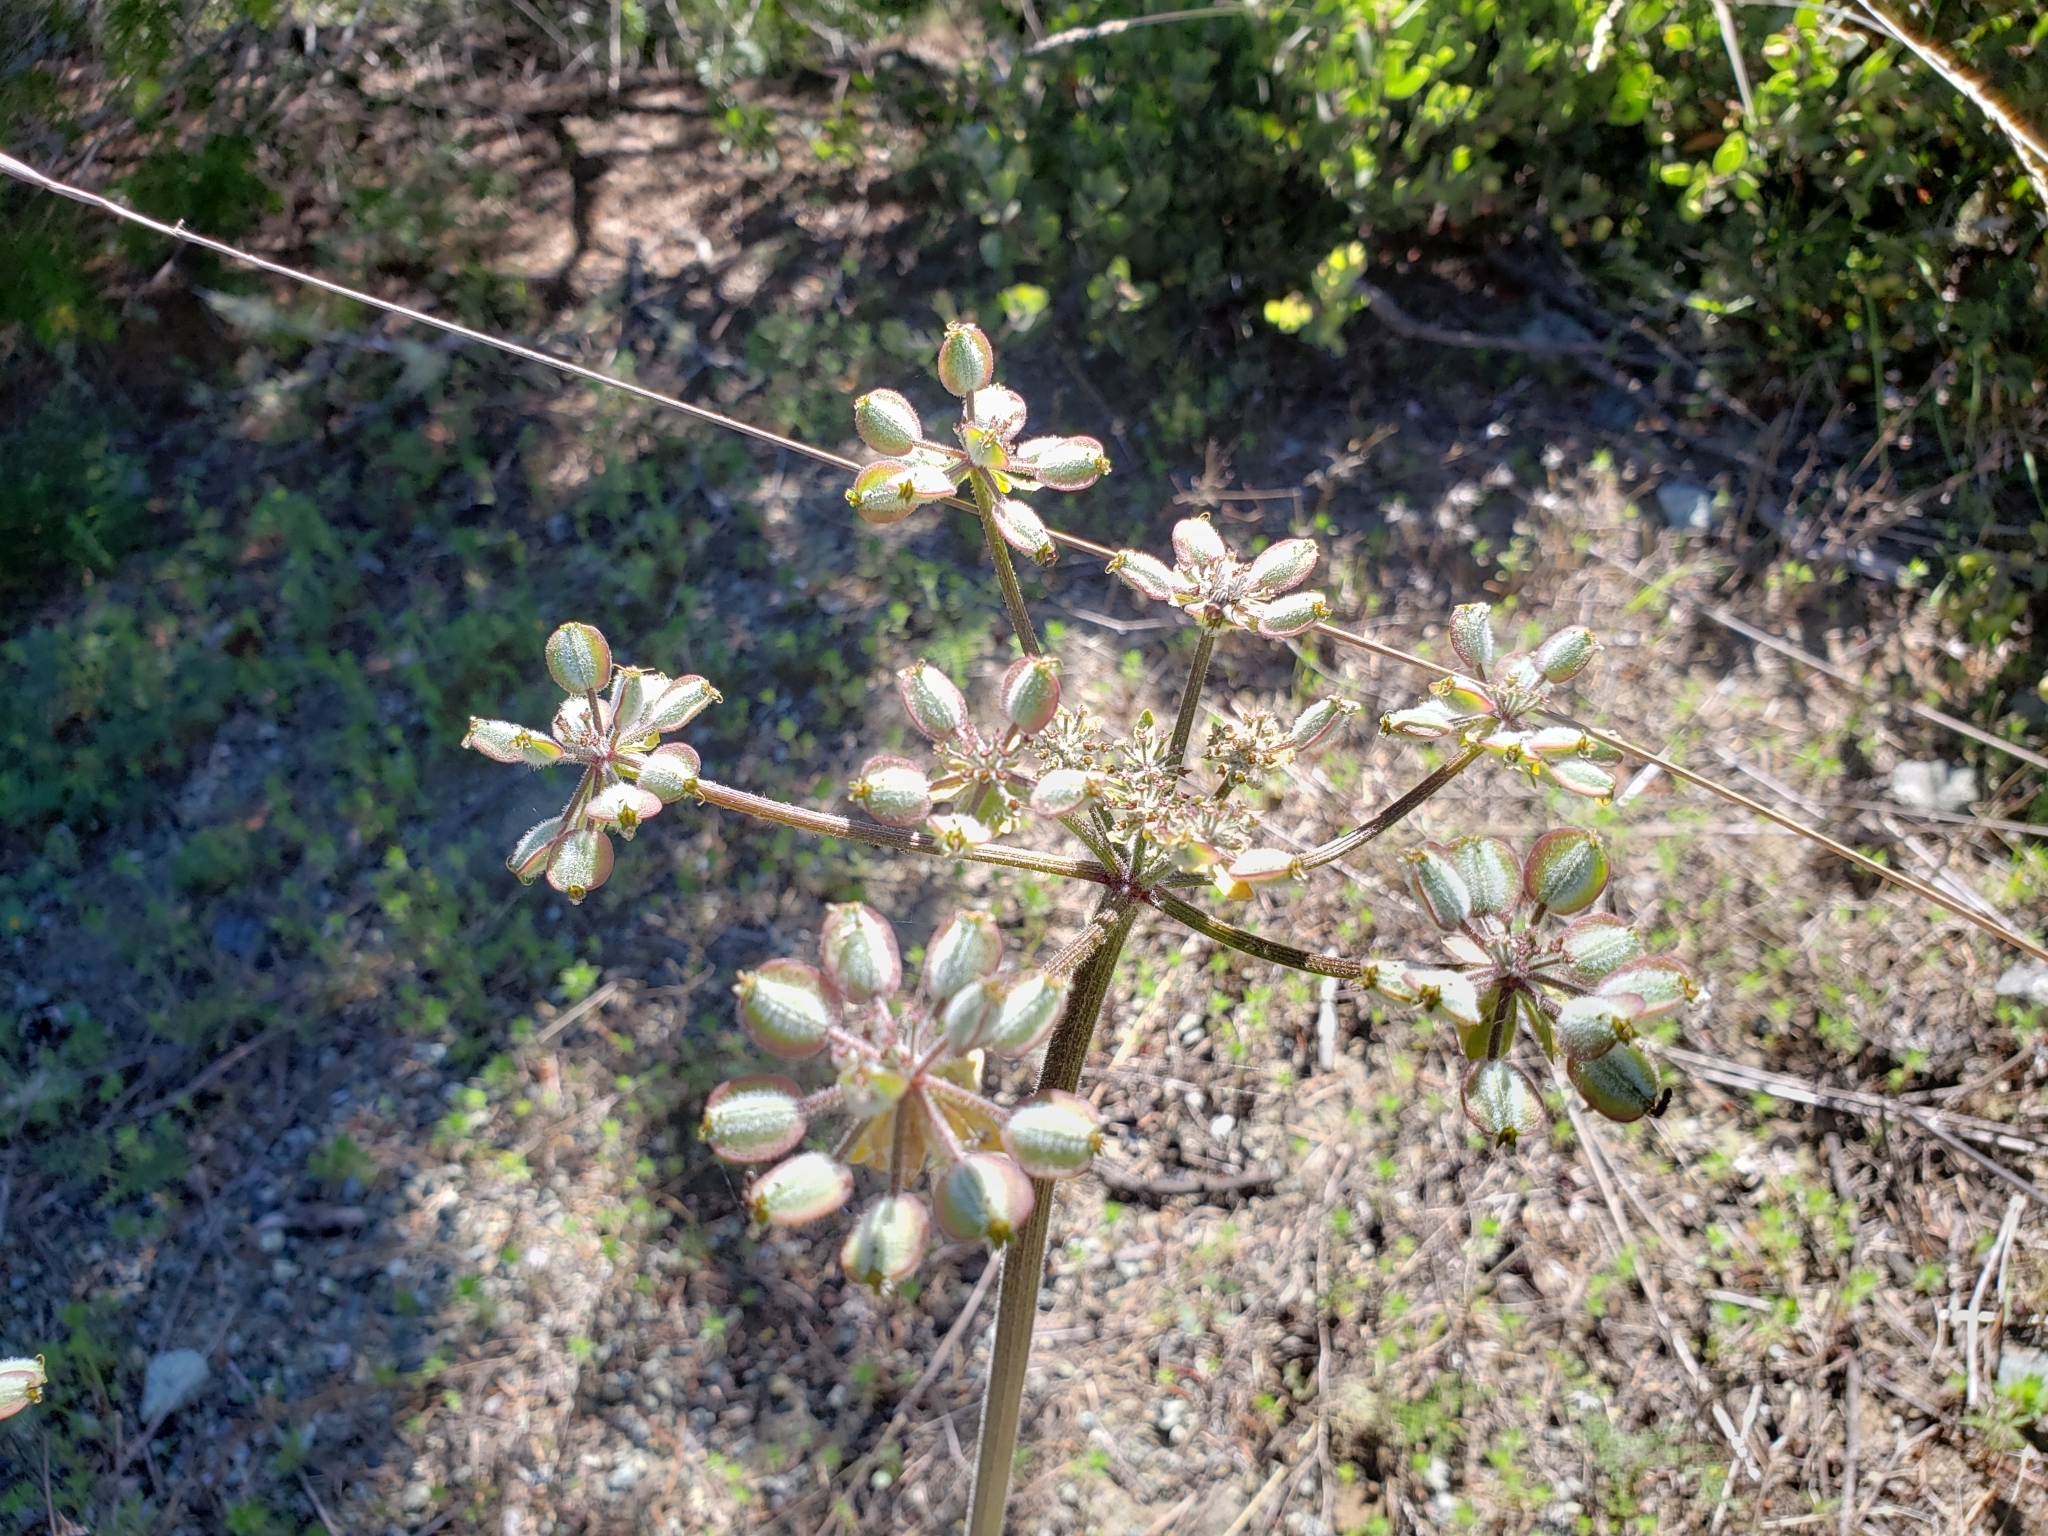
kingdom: Plantae
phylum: Tracheophyta
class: Magnoliopsida
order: Apiales
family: Apiaceae
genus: Lomatium
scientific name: Lomatium dasycarpum
